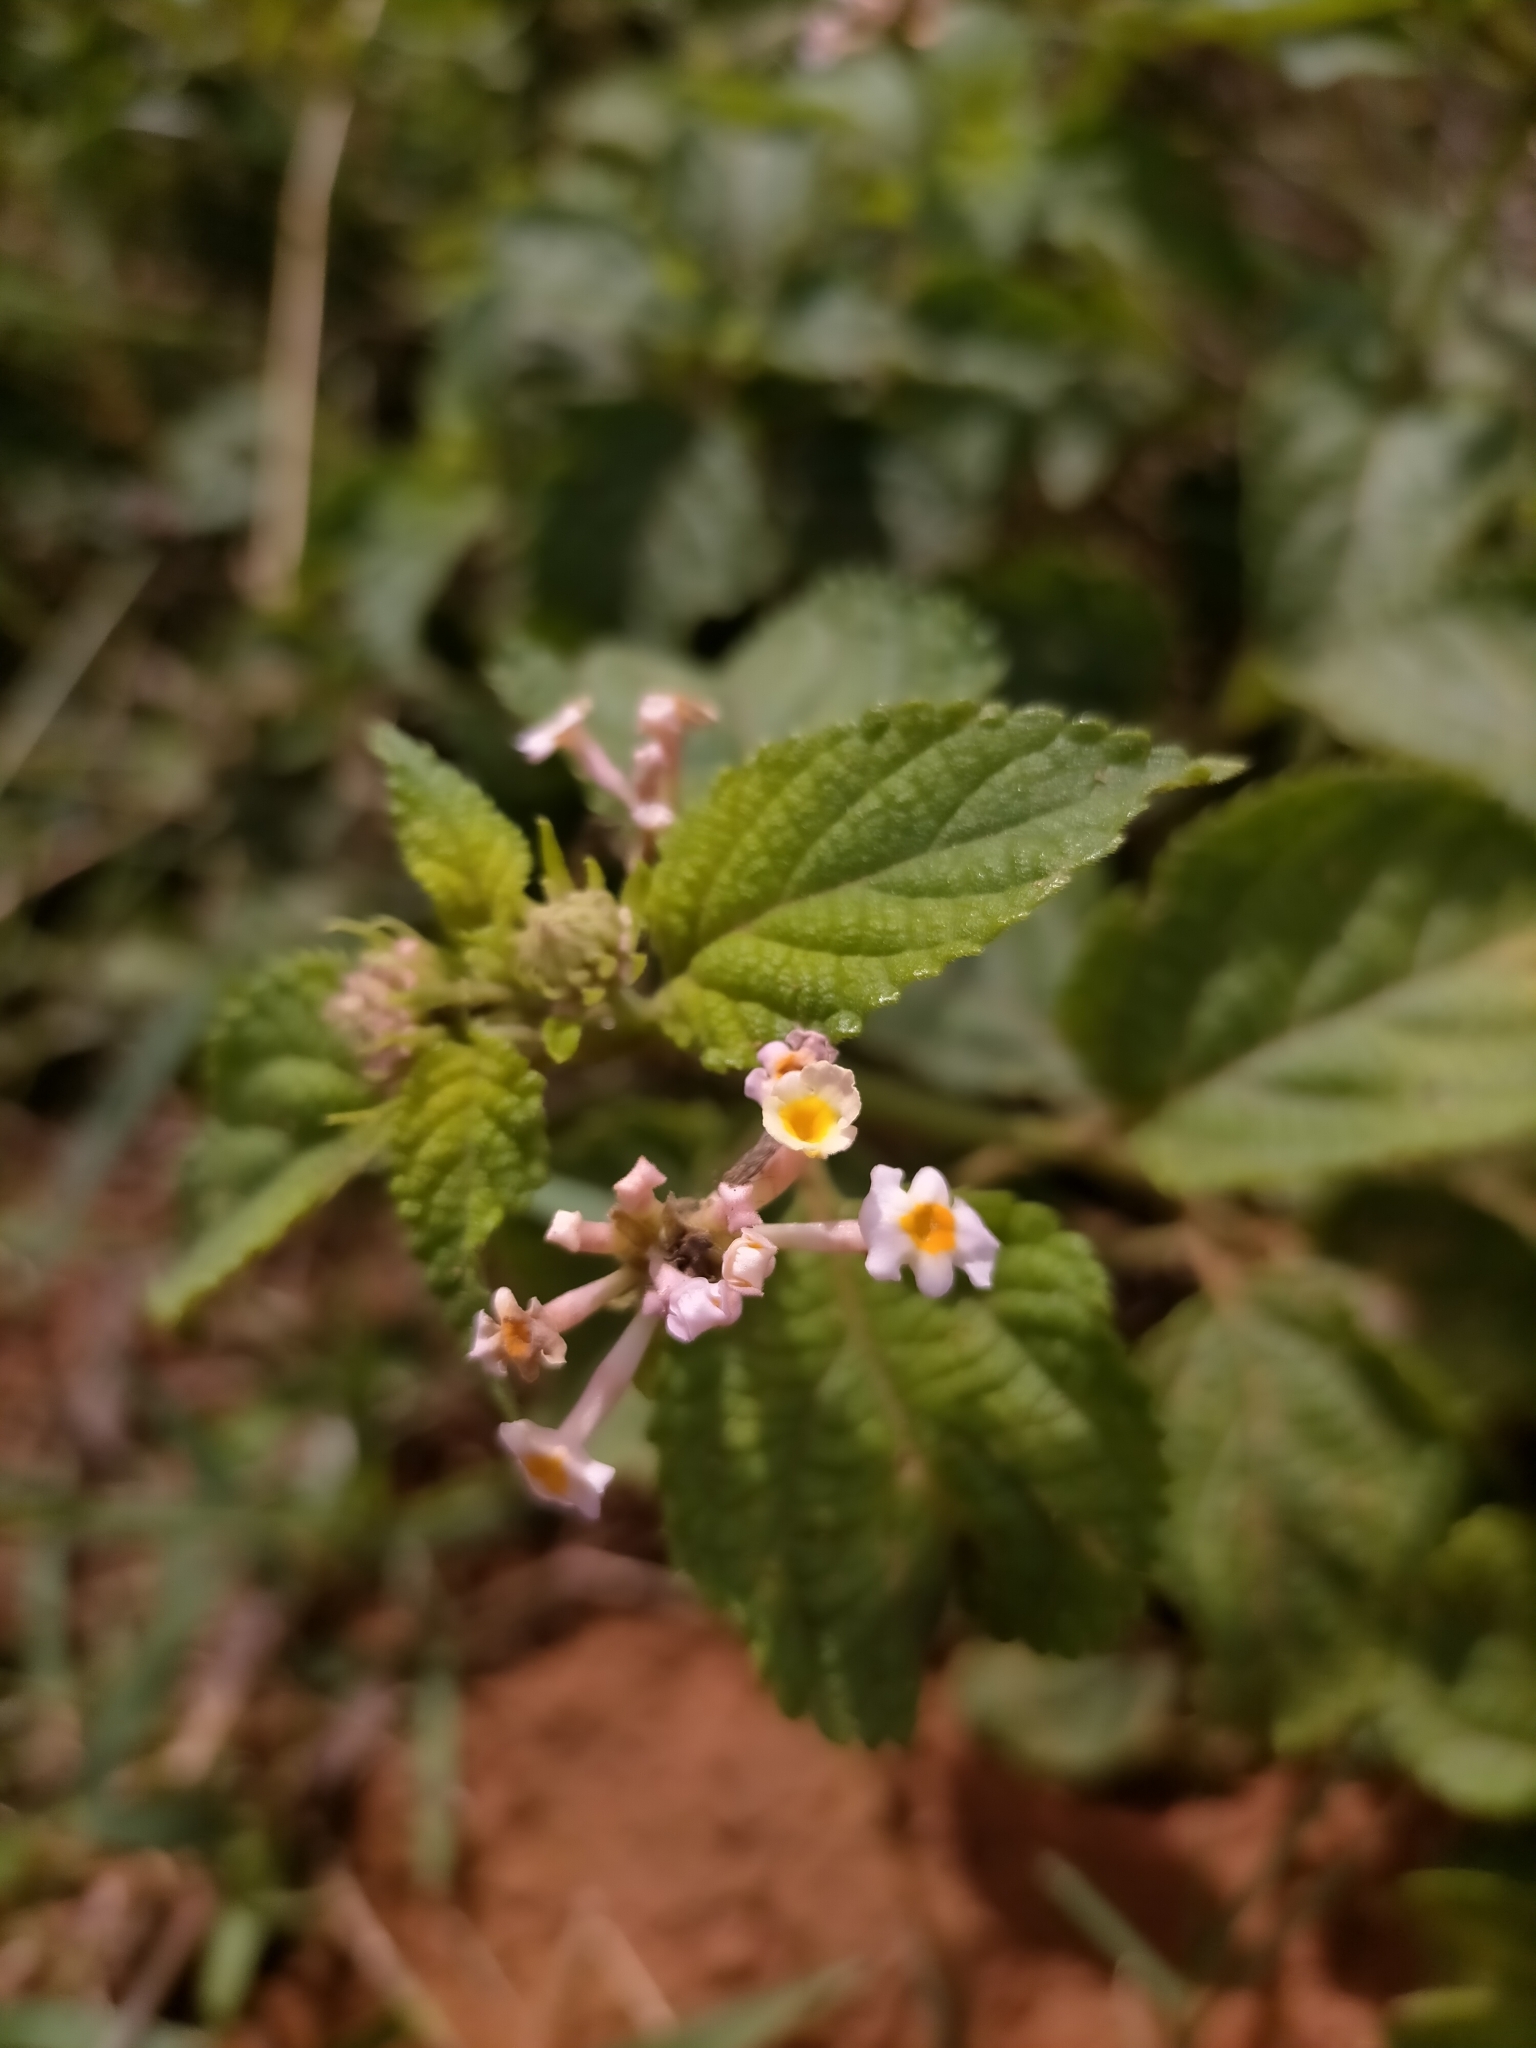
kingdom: Plantae
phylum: Tracheophyta
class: Magnoliopsida
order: Lamiales
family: Verbenaceae
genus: Lantana
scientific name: Lantana camara
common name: Lantana
